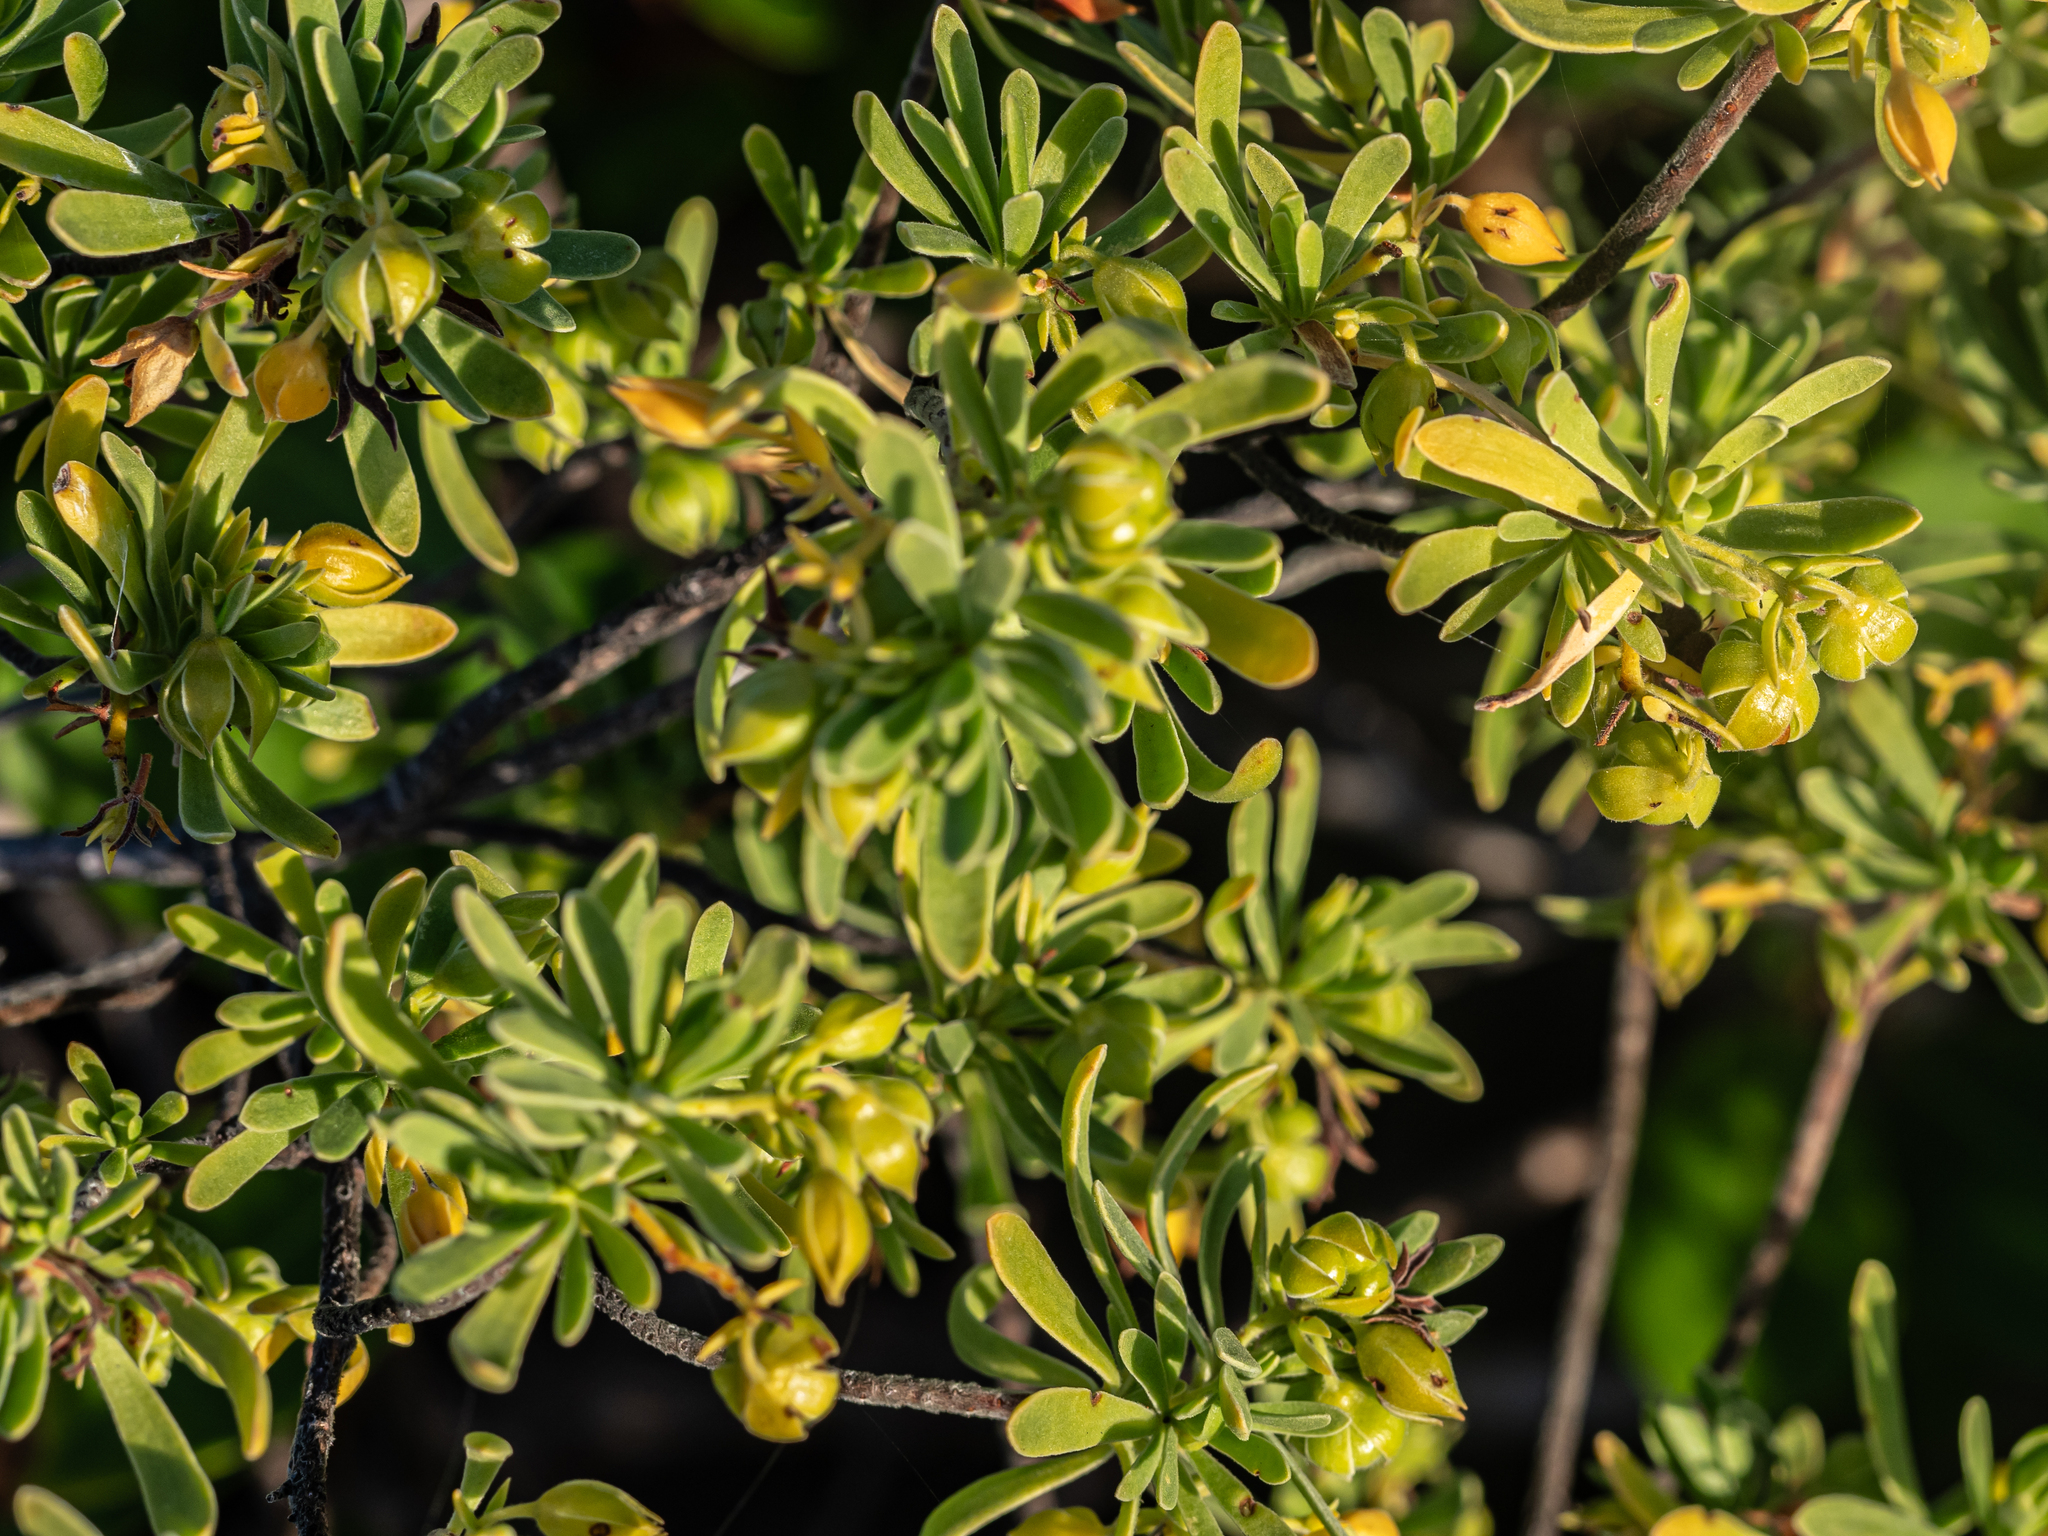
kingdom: Plantae
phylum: Tracheophyta
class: Magnoliopsida
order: Fabales
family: Surianaceae
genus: Suriana
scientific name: Suriana maritima
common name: Bay-cedar
